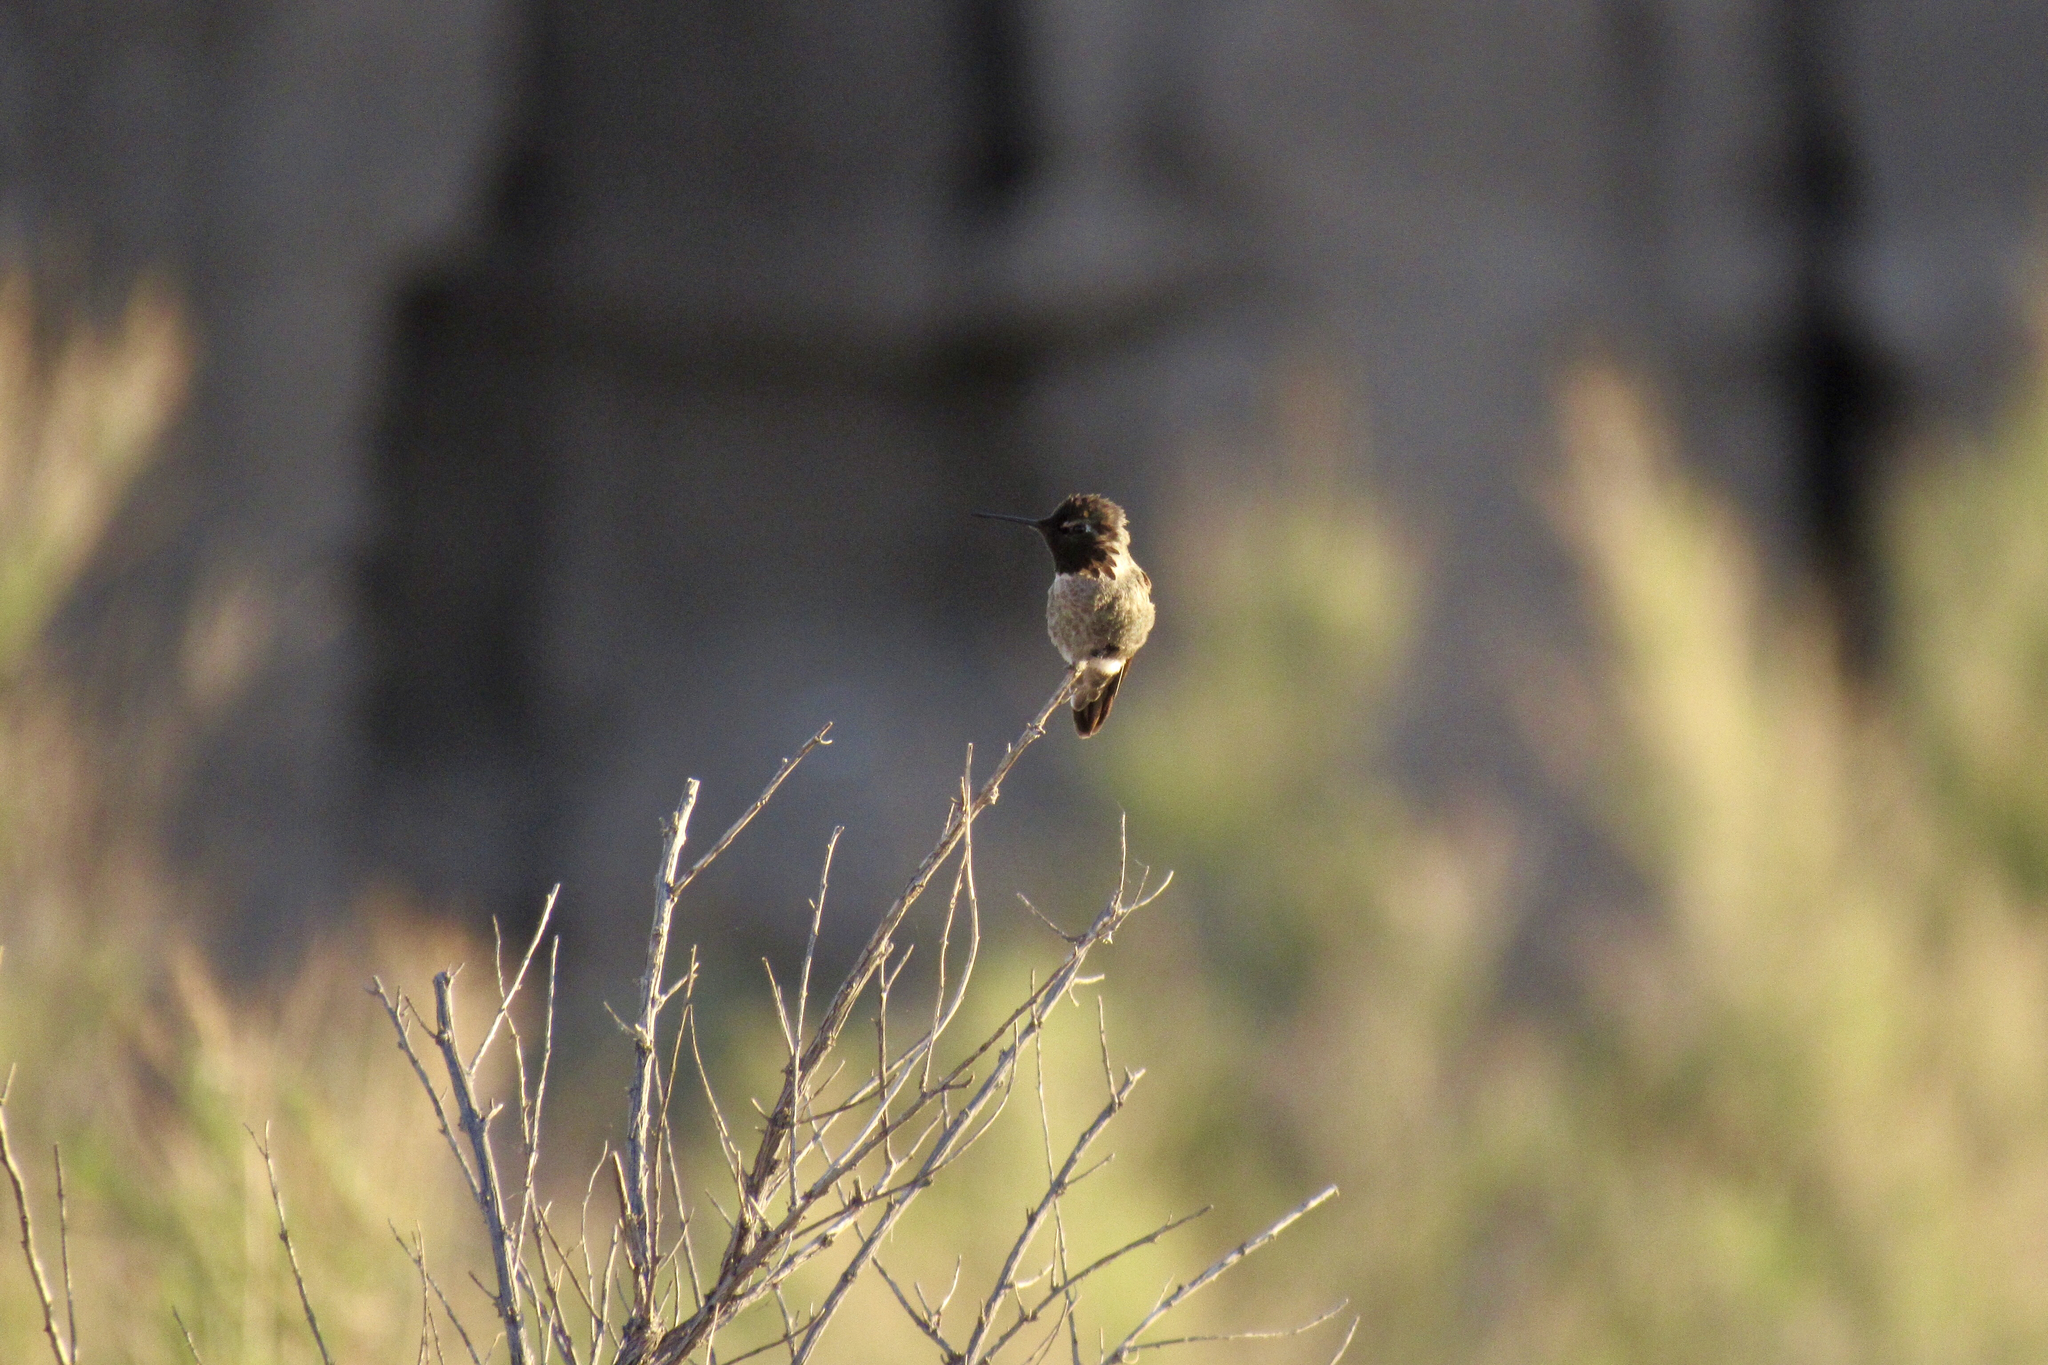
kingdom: Animalia
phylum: Chordata
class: Aves
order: Apodiformes
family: Trochilidae
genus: Calypte
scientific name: Calypte anna
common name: Anna's hummingbird
